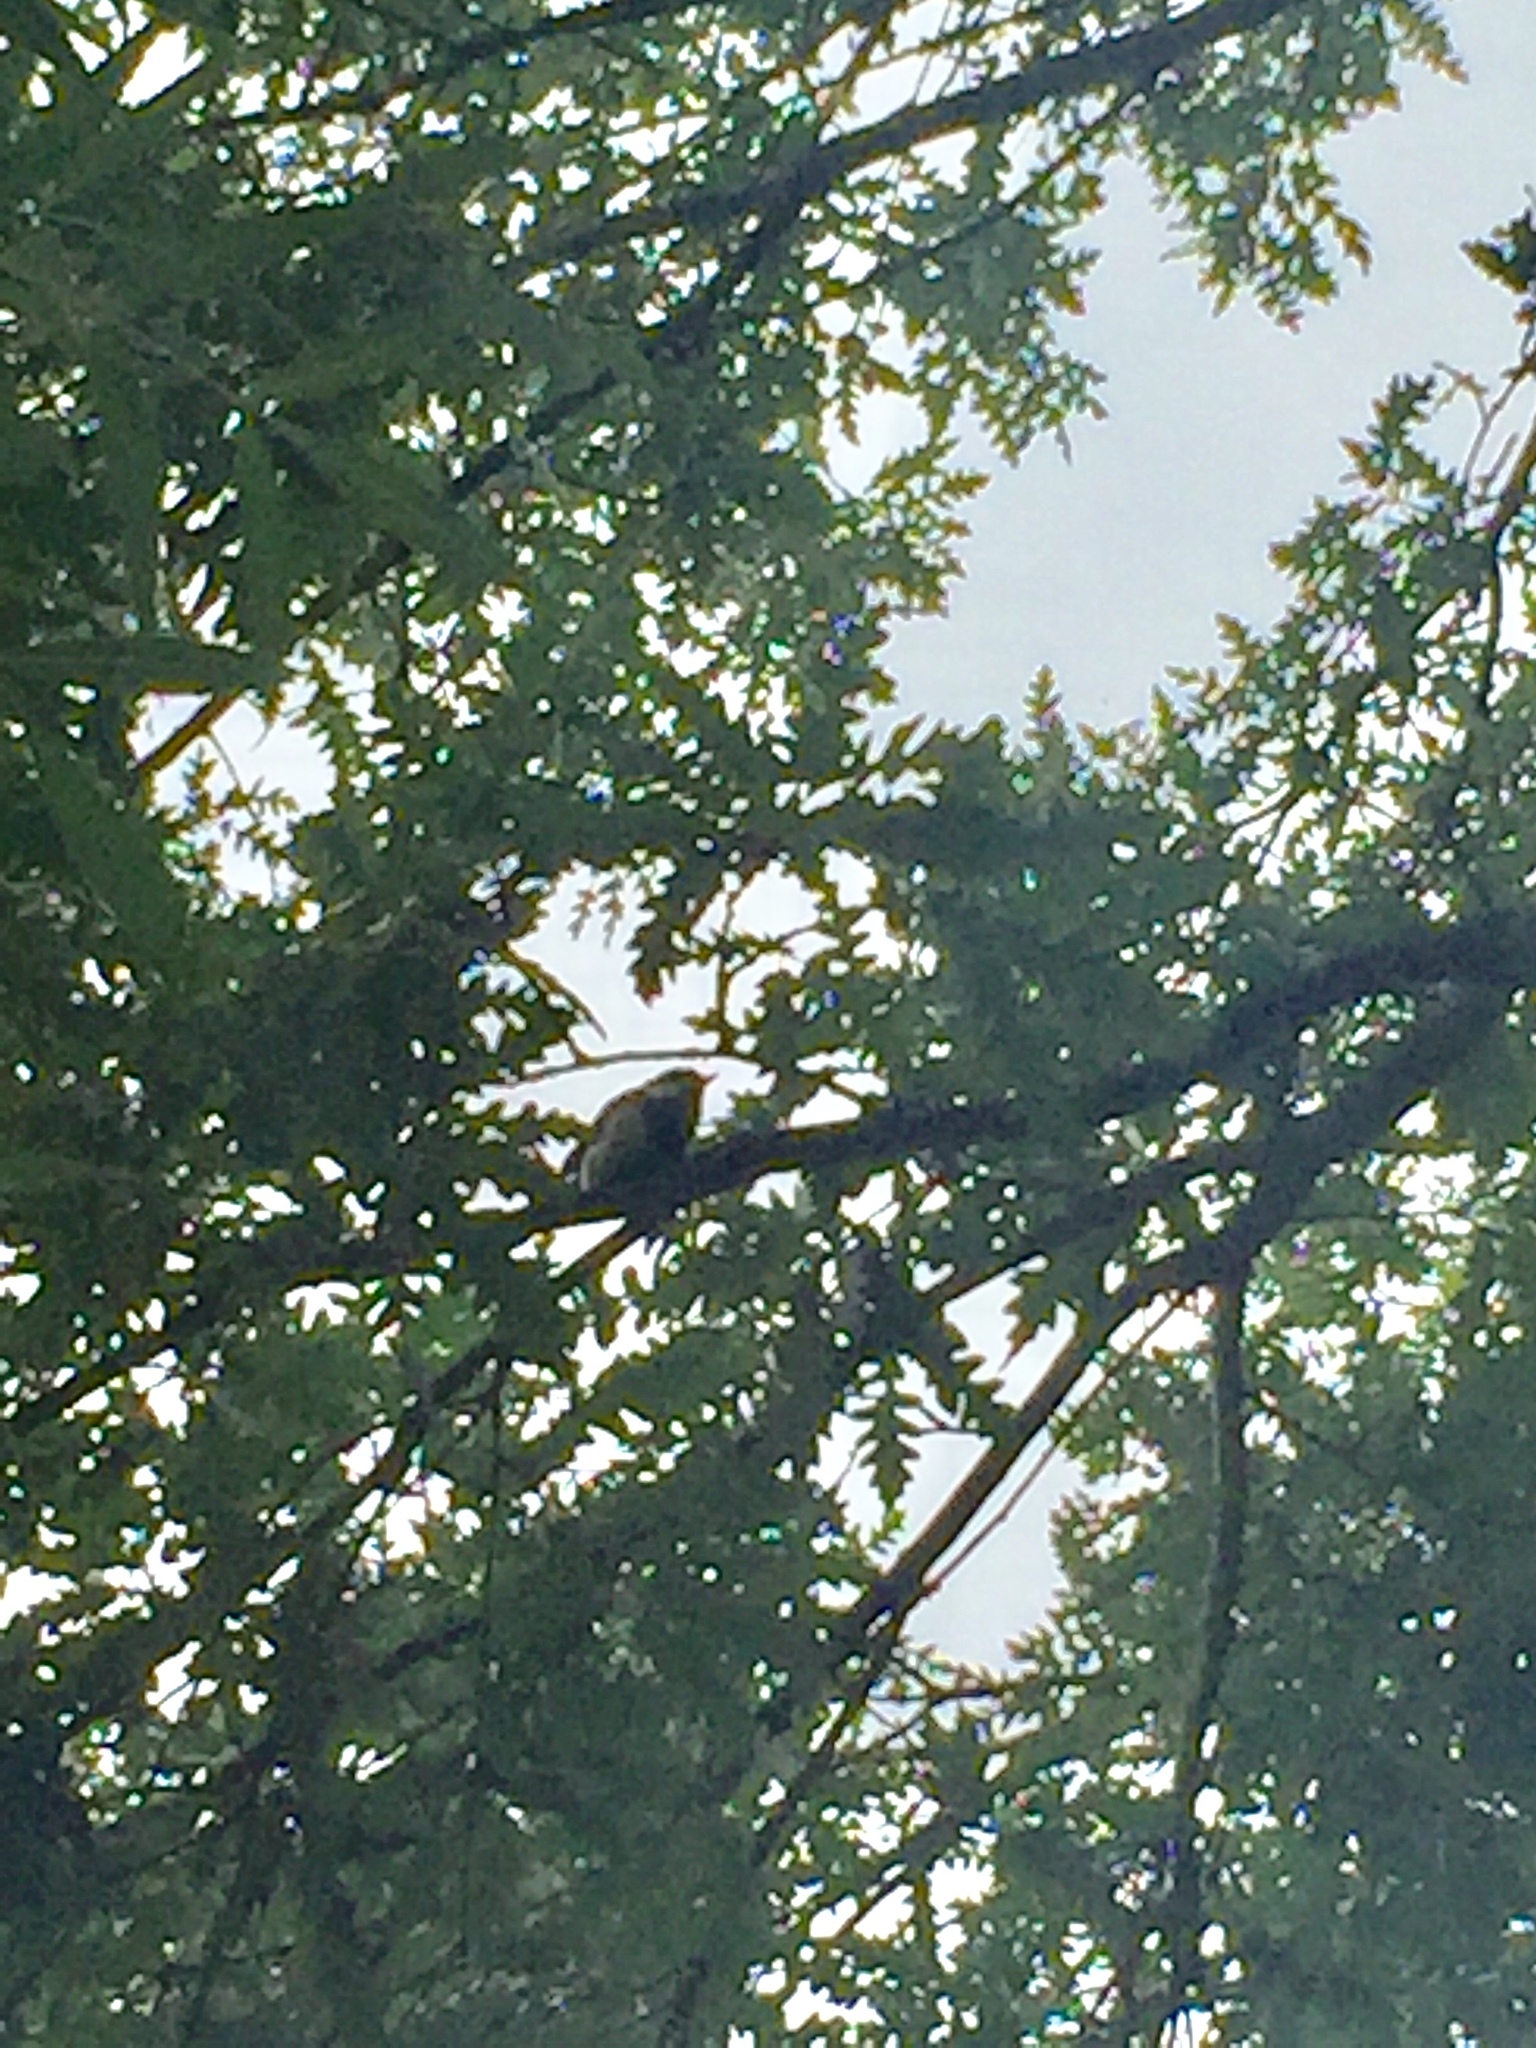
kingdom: Animalia
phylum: Chordata
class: Aves
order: Passeriformes
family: Paridae
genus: Parus
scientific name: Parus major
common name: Great tit
